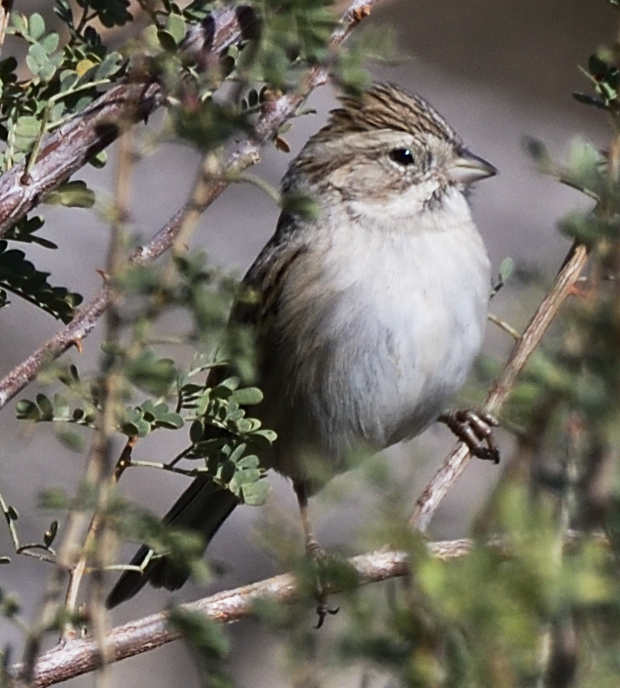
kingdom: Animalia
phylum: Chordata
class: Aves
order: Passeriformes
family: Passerellidae
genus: Spizella
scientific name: Spizella breweri
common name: Brewer's sparrow
